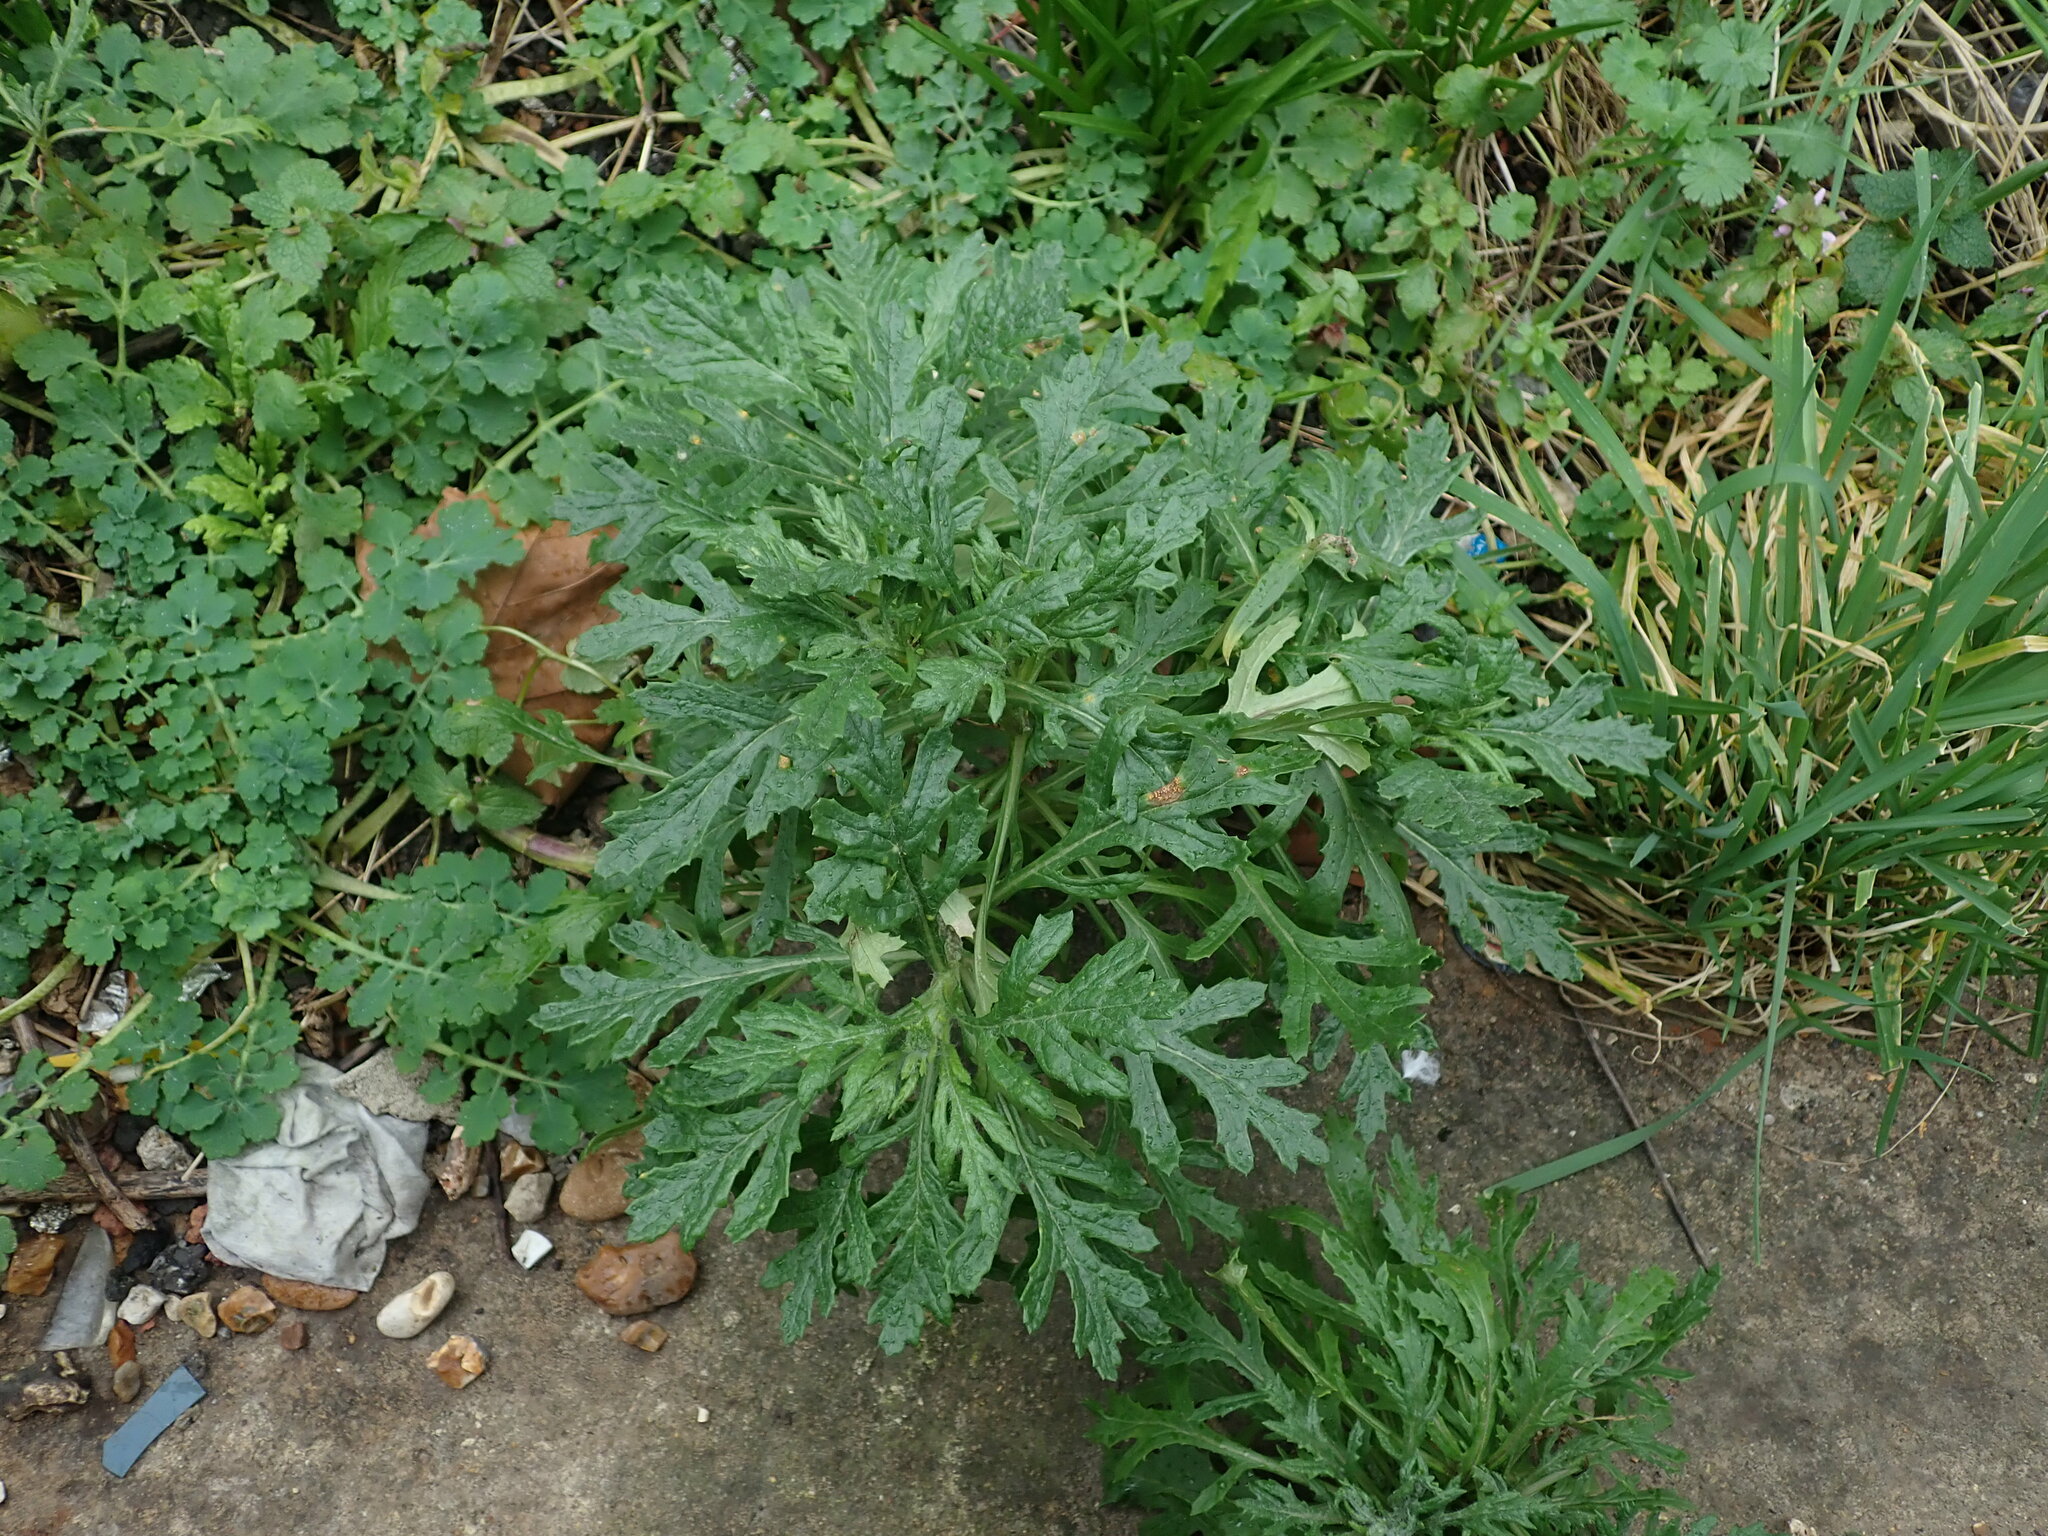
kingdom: Plantae
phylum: Tracheophyta
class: Magnoliopsida
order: Asterales
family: Asteraceae
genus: Senecio
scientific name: Senecio squalidus
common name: Oxford ragwort
